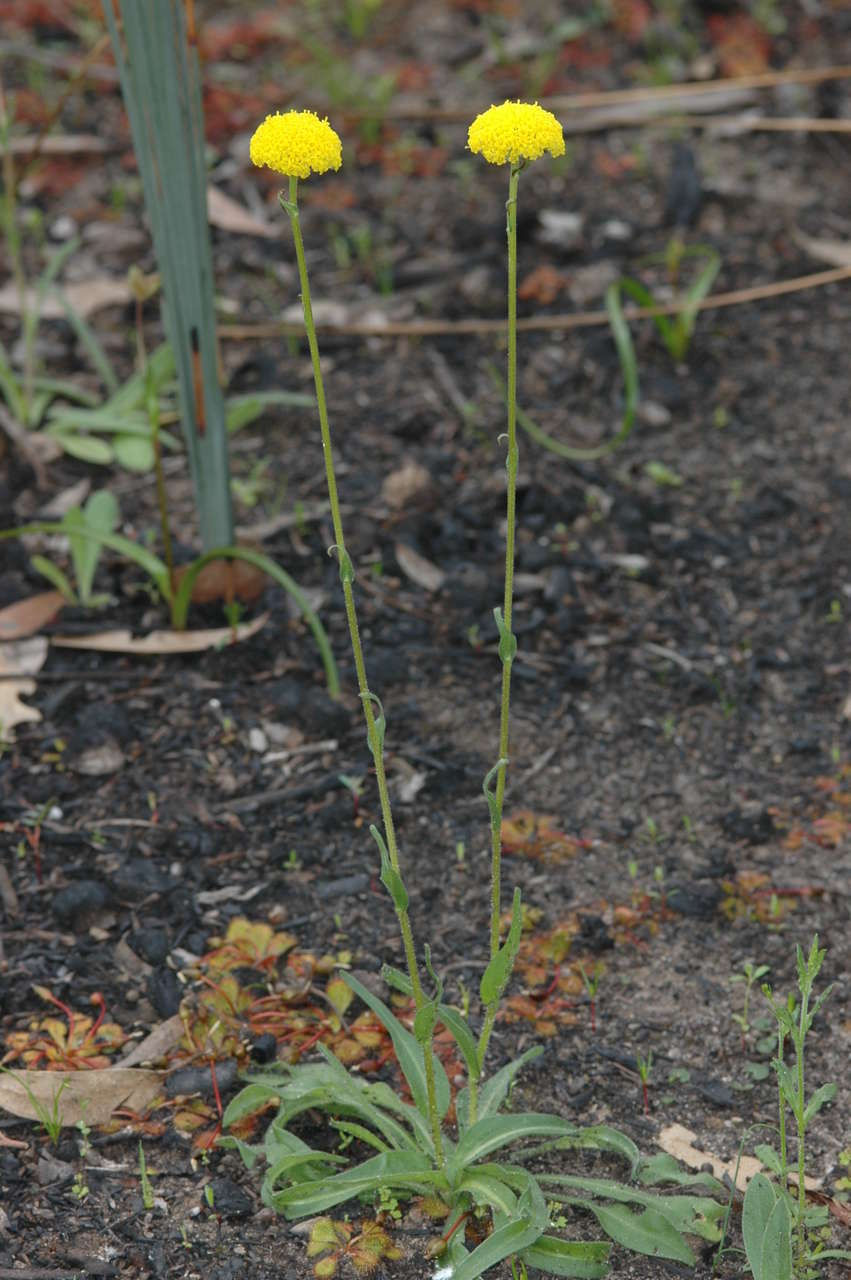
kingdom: Plantae
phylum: Tracheophyta
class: Magnoliopsida
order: Asterales
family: Asteraceae
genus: Craspedia
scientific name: Craspedia variabilis
